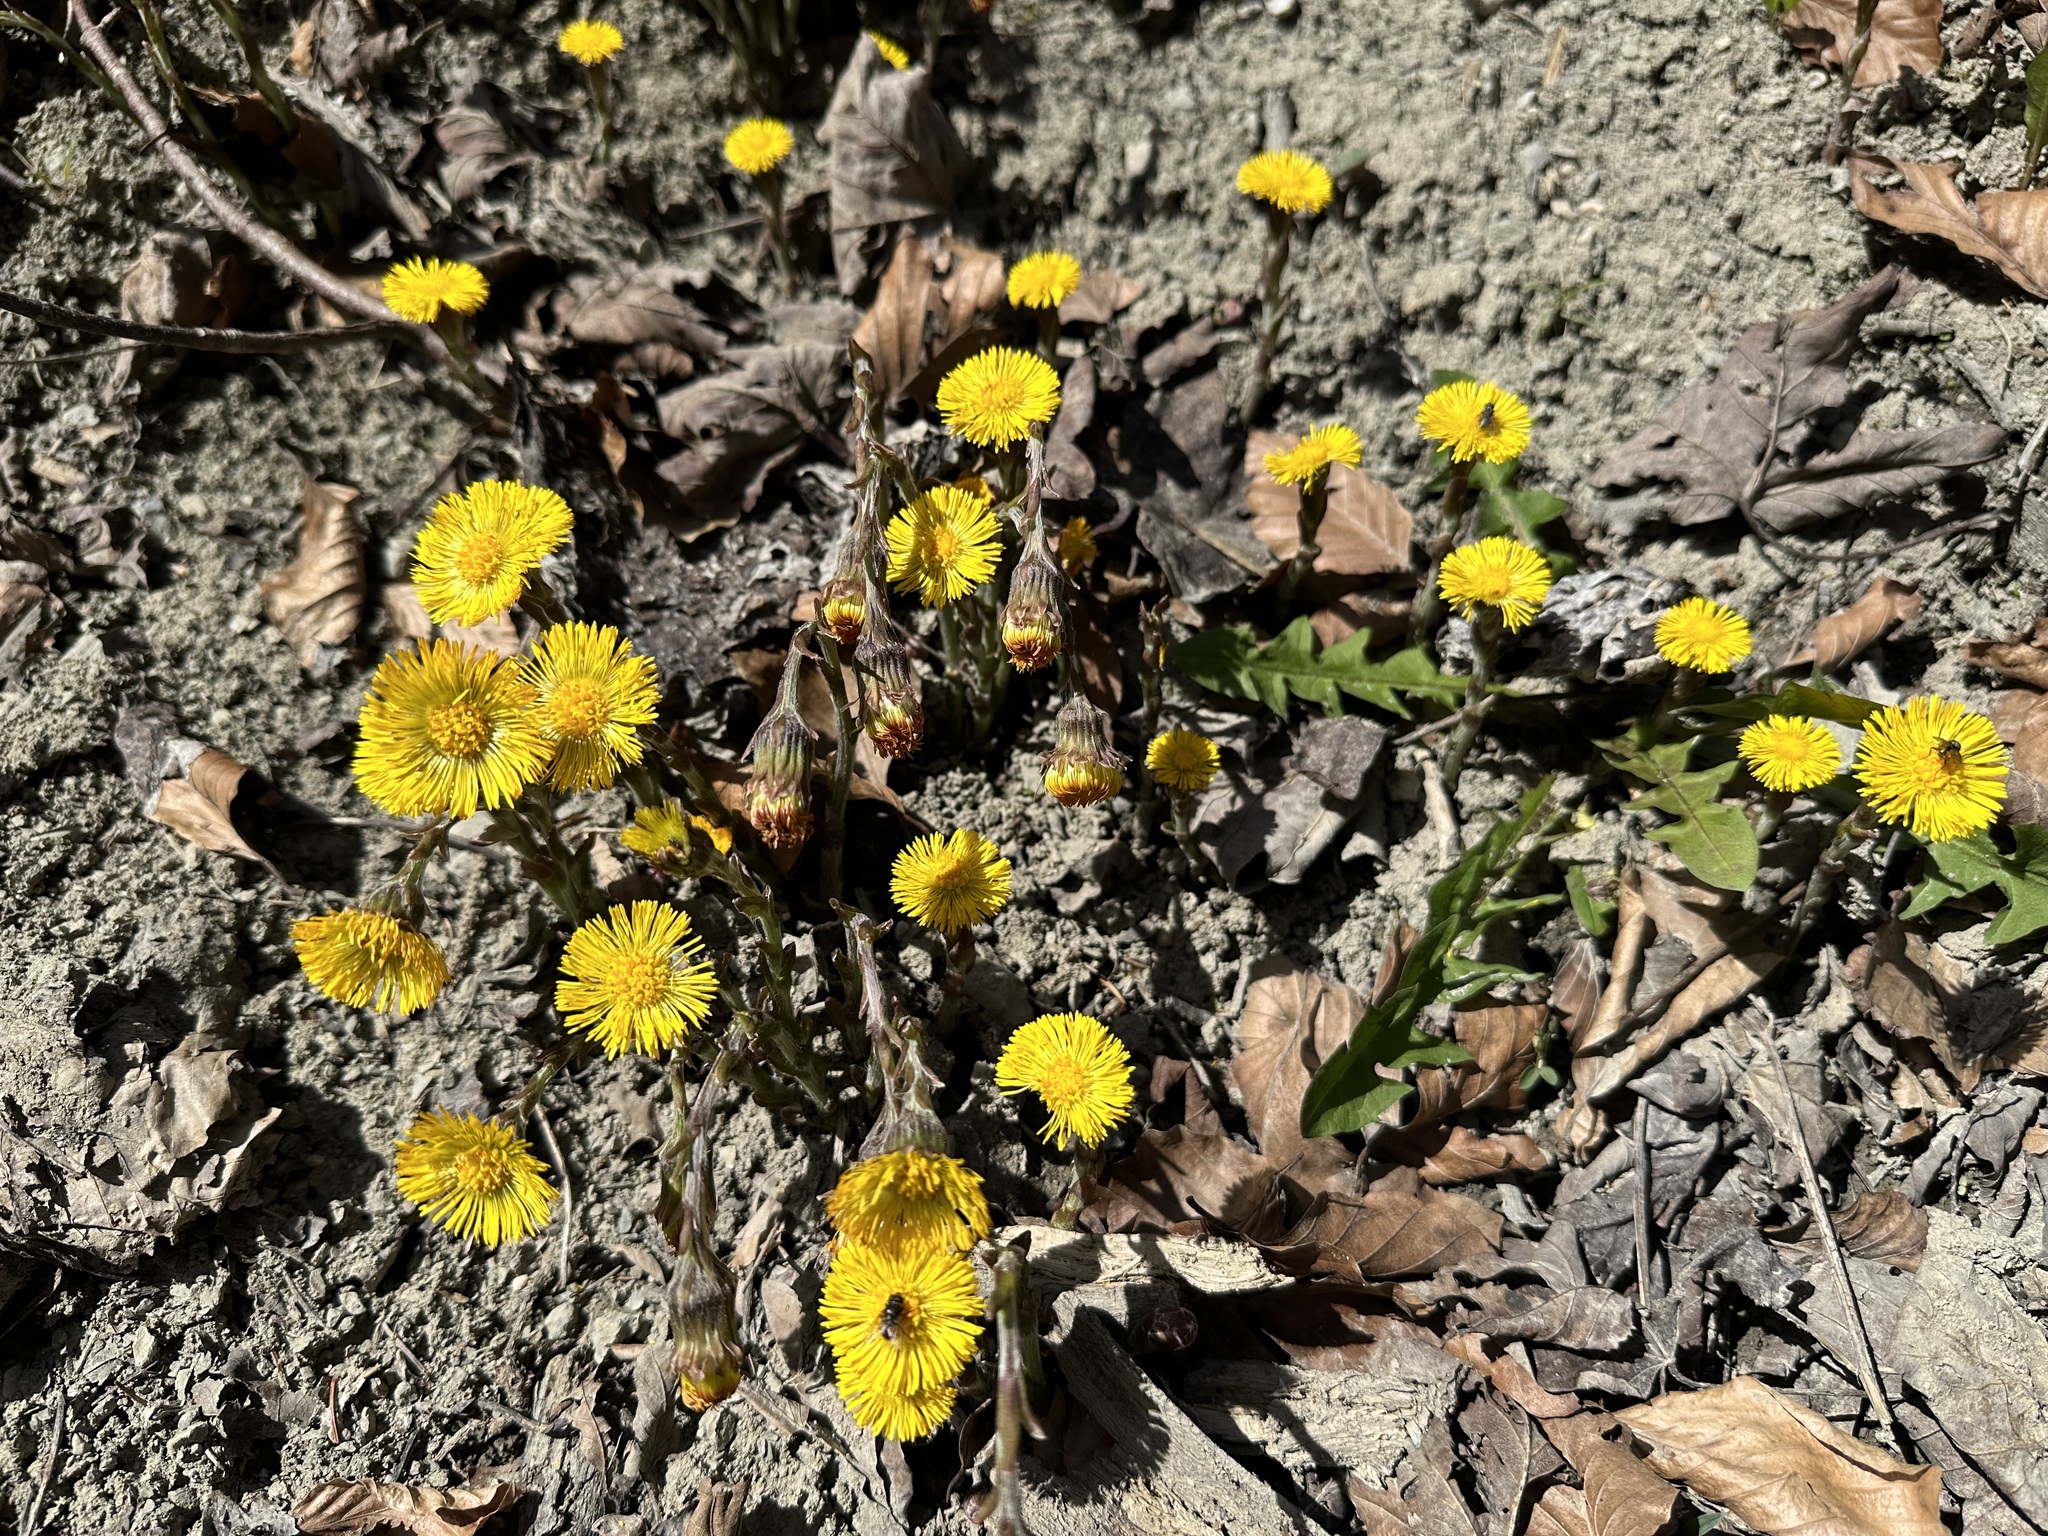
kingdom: Plantae
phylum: Tracheophyta
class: Magnoliopsida
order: Asterales
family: Asteraceae
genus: Tussilago
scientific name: Tussilago farfara
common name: Coltsfoot
